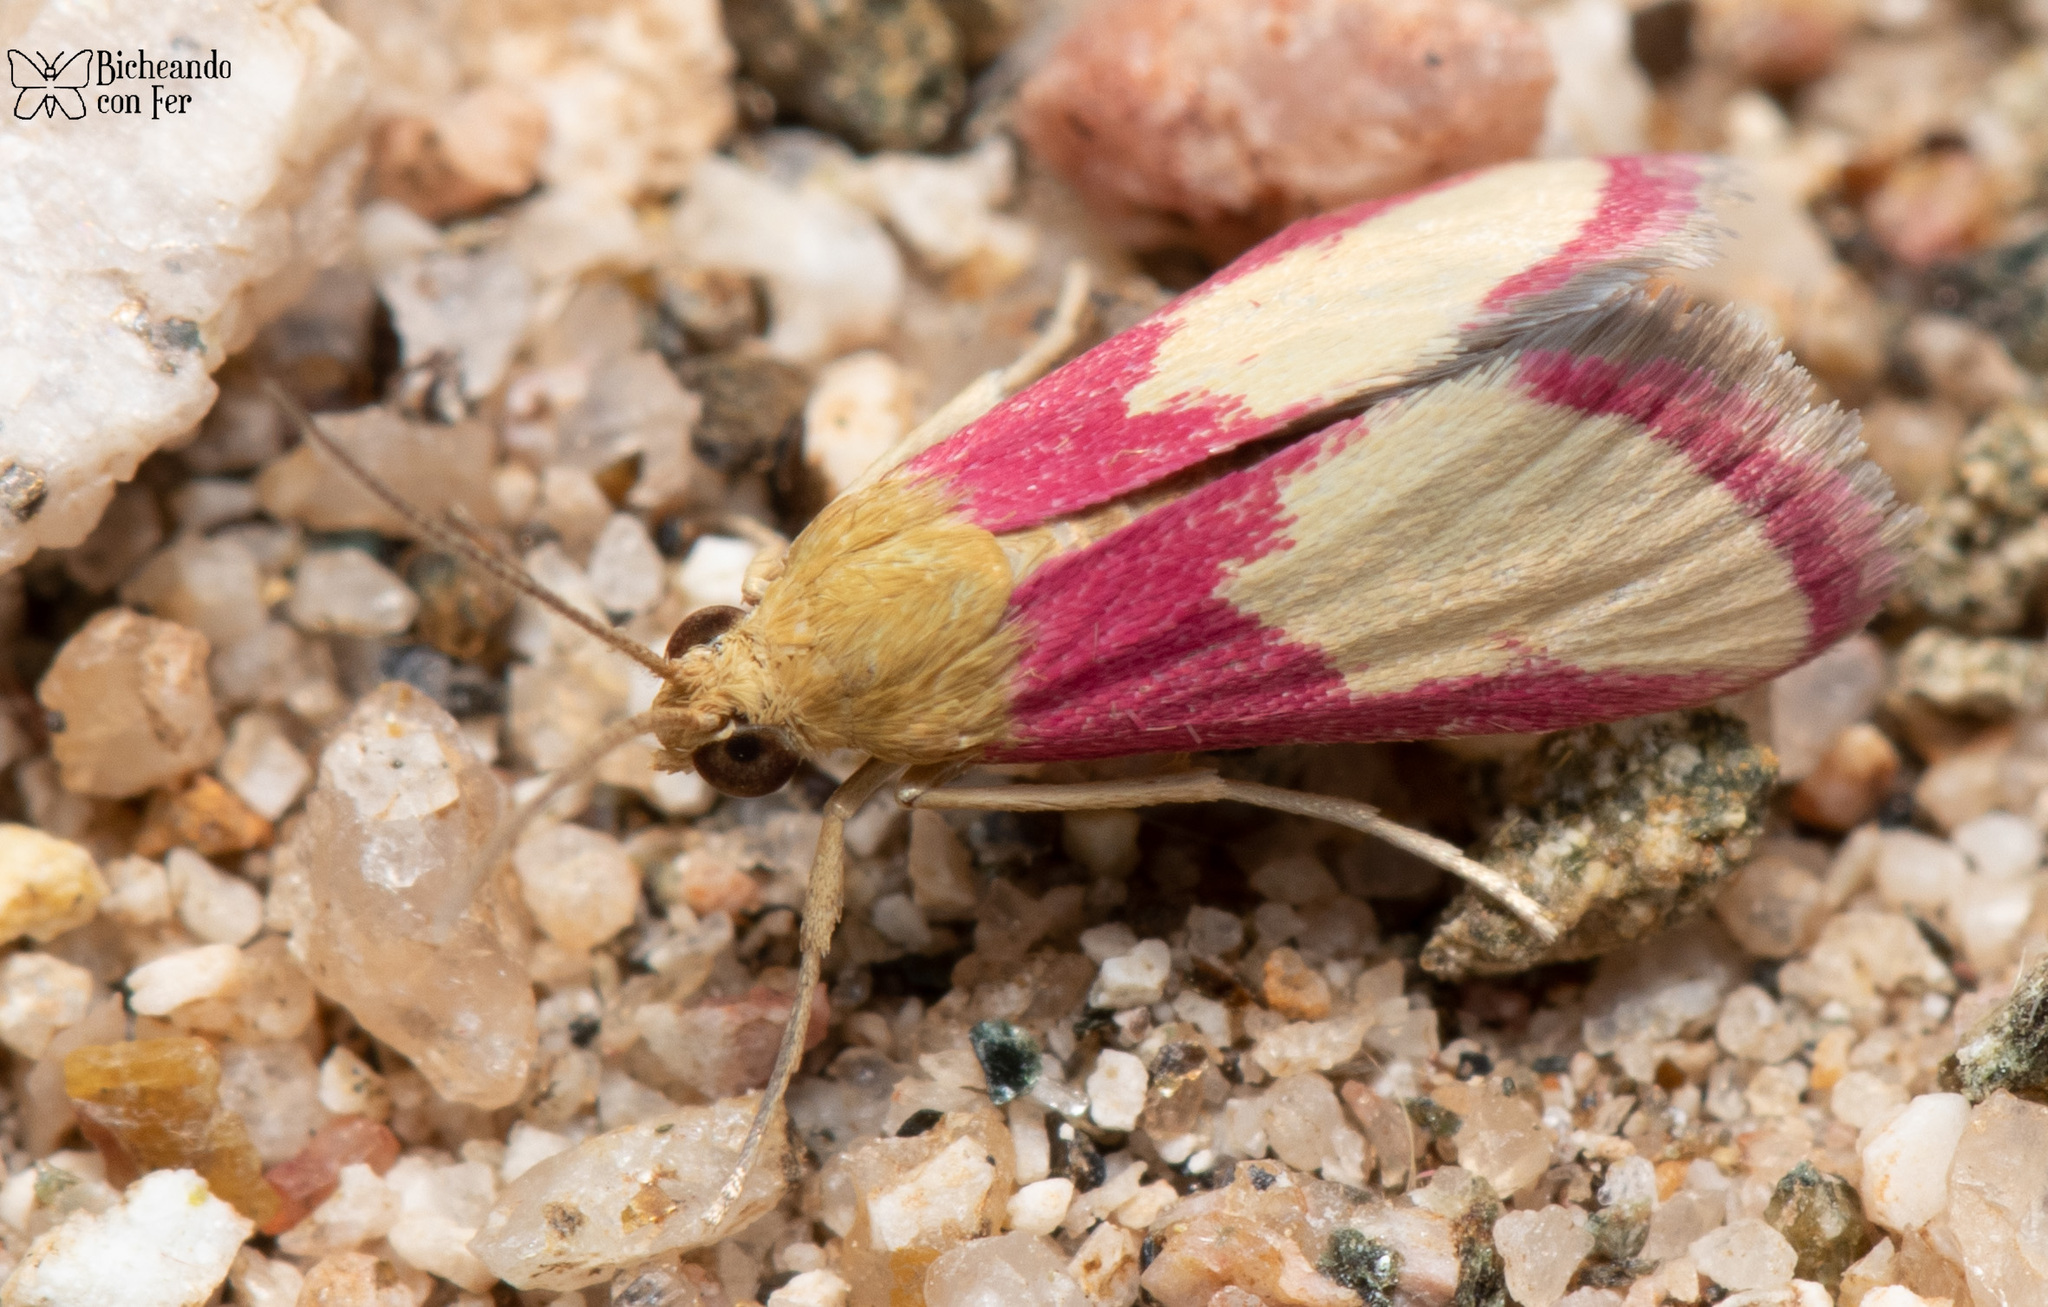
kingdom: Animalia
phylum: Arthropoda
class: Insecta
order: Lepidoptera
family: Crambidae
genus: Mojavia
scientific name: Mojavia achemonalis
